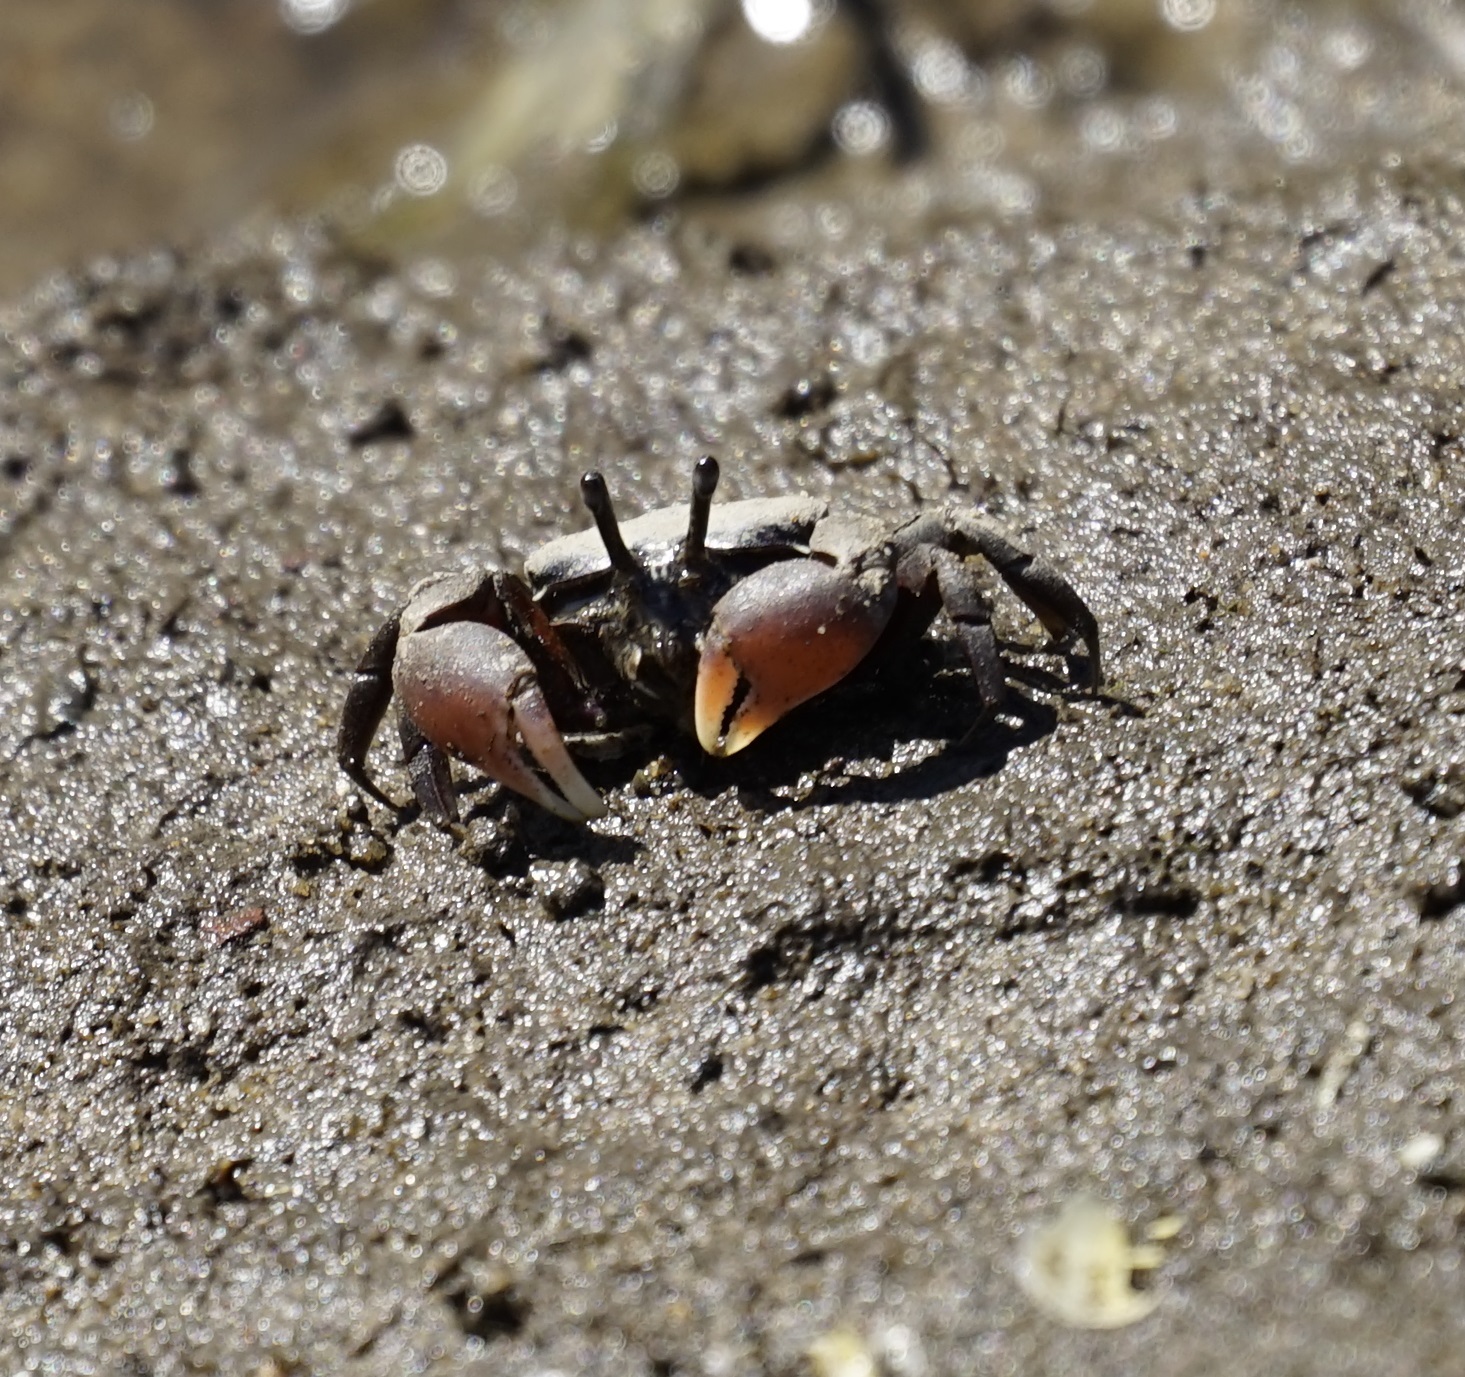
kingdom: Animalia
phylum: Arthropoda
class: Malacostraca
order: Decapoda
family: Heloeciidae
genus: Heloecius
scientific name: Heloecius cordiformis
